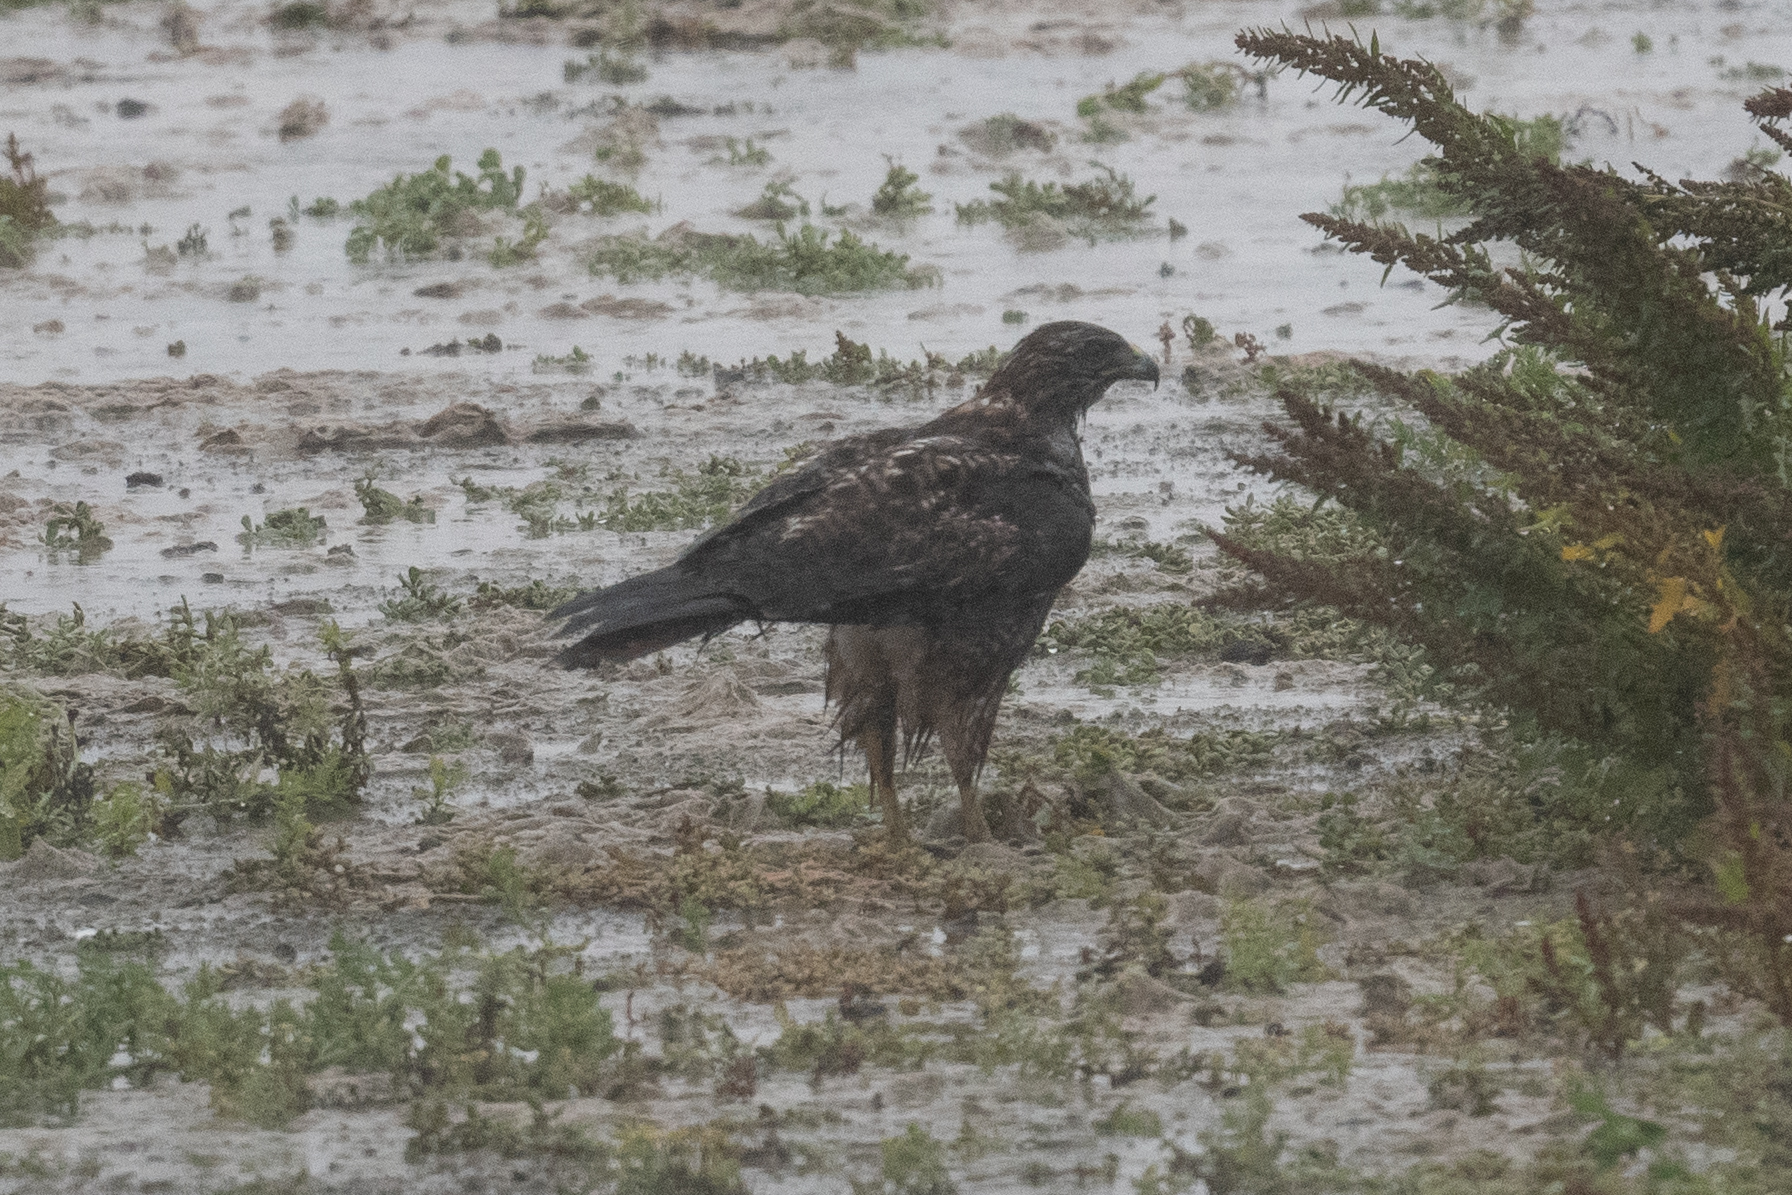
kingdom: Animalia
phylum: Chordata
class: Aves
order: Accipitriformes
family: Accipitridae
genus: Buteo
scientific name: Buteo jamaicensis
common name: Red-tailed hawk
